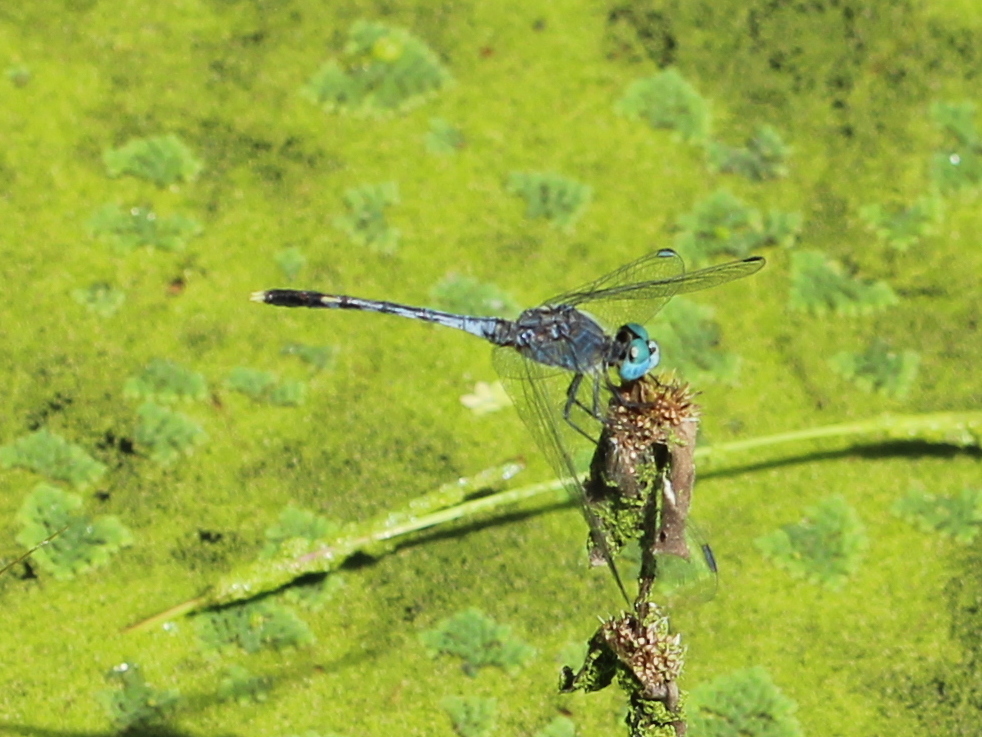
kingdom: Animalia
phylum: Arthropoda
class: Insecta
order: Odonata
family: Libellulidae
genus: Diplacodes
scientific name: Diplacodes trivialis
